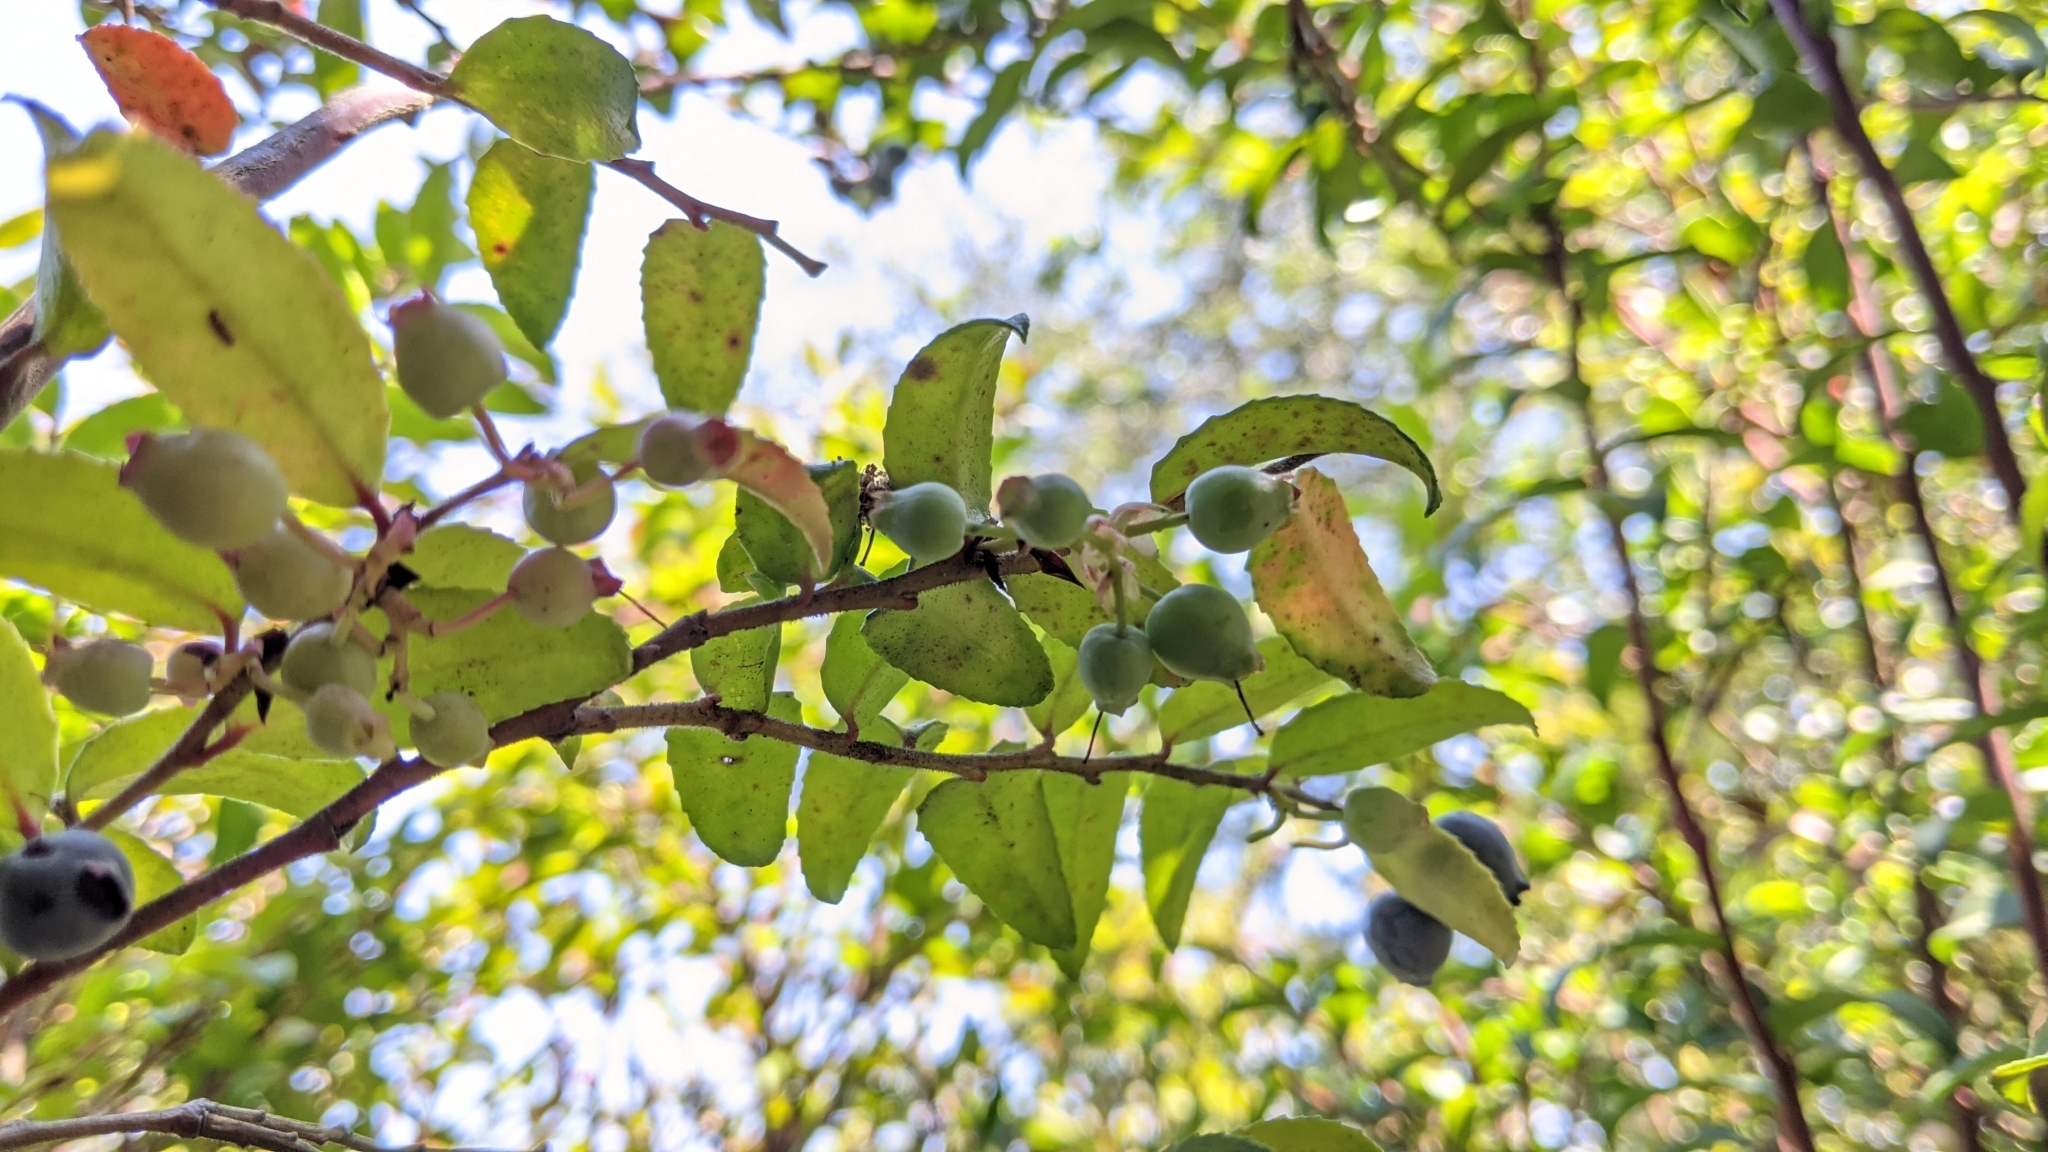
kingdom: Plantae
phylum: Tracheophyta
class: Magnoliopsida
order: Ericales
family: Ericaceae
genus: Vaccinium
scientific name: Vaccinium ovatum
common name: California-huckleberry
